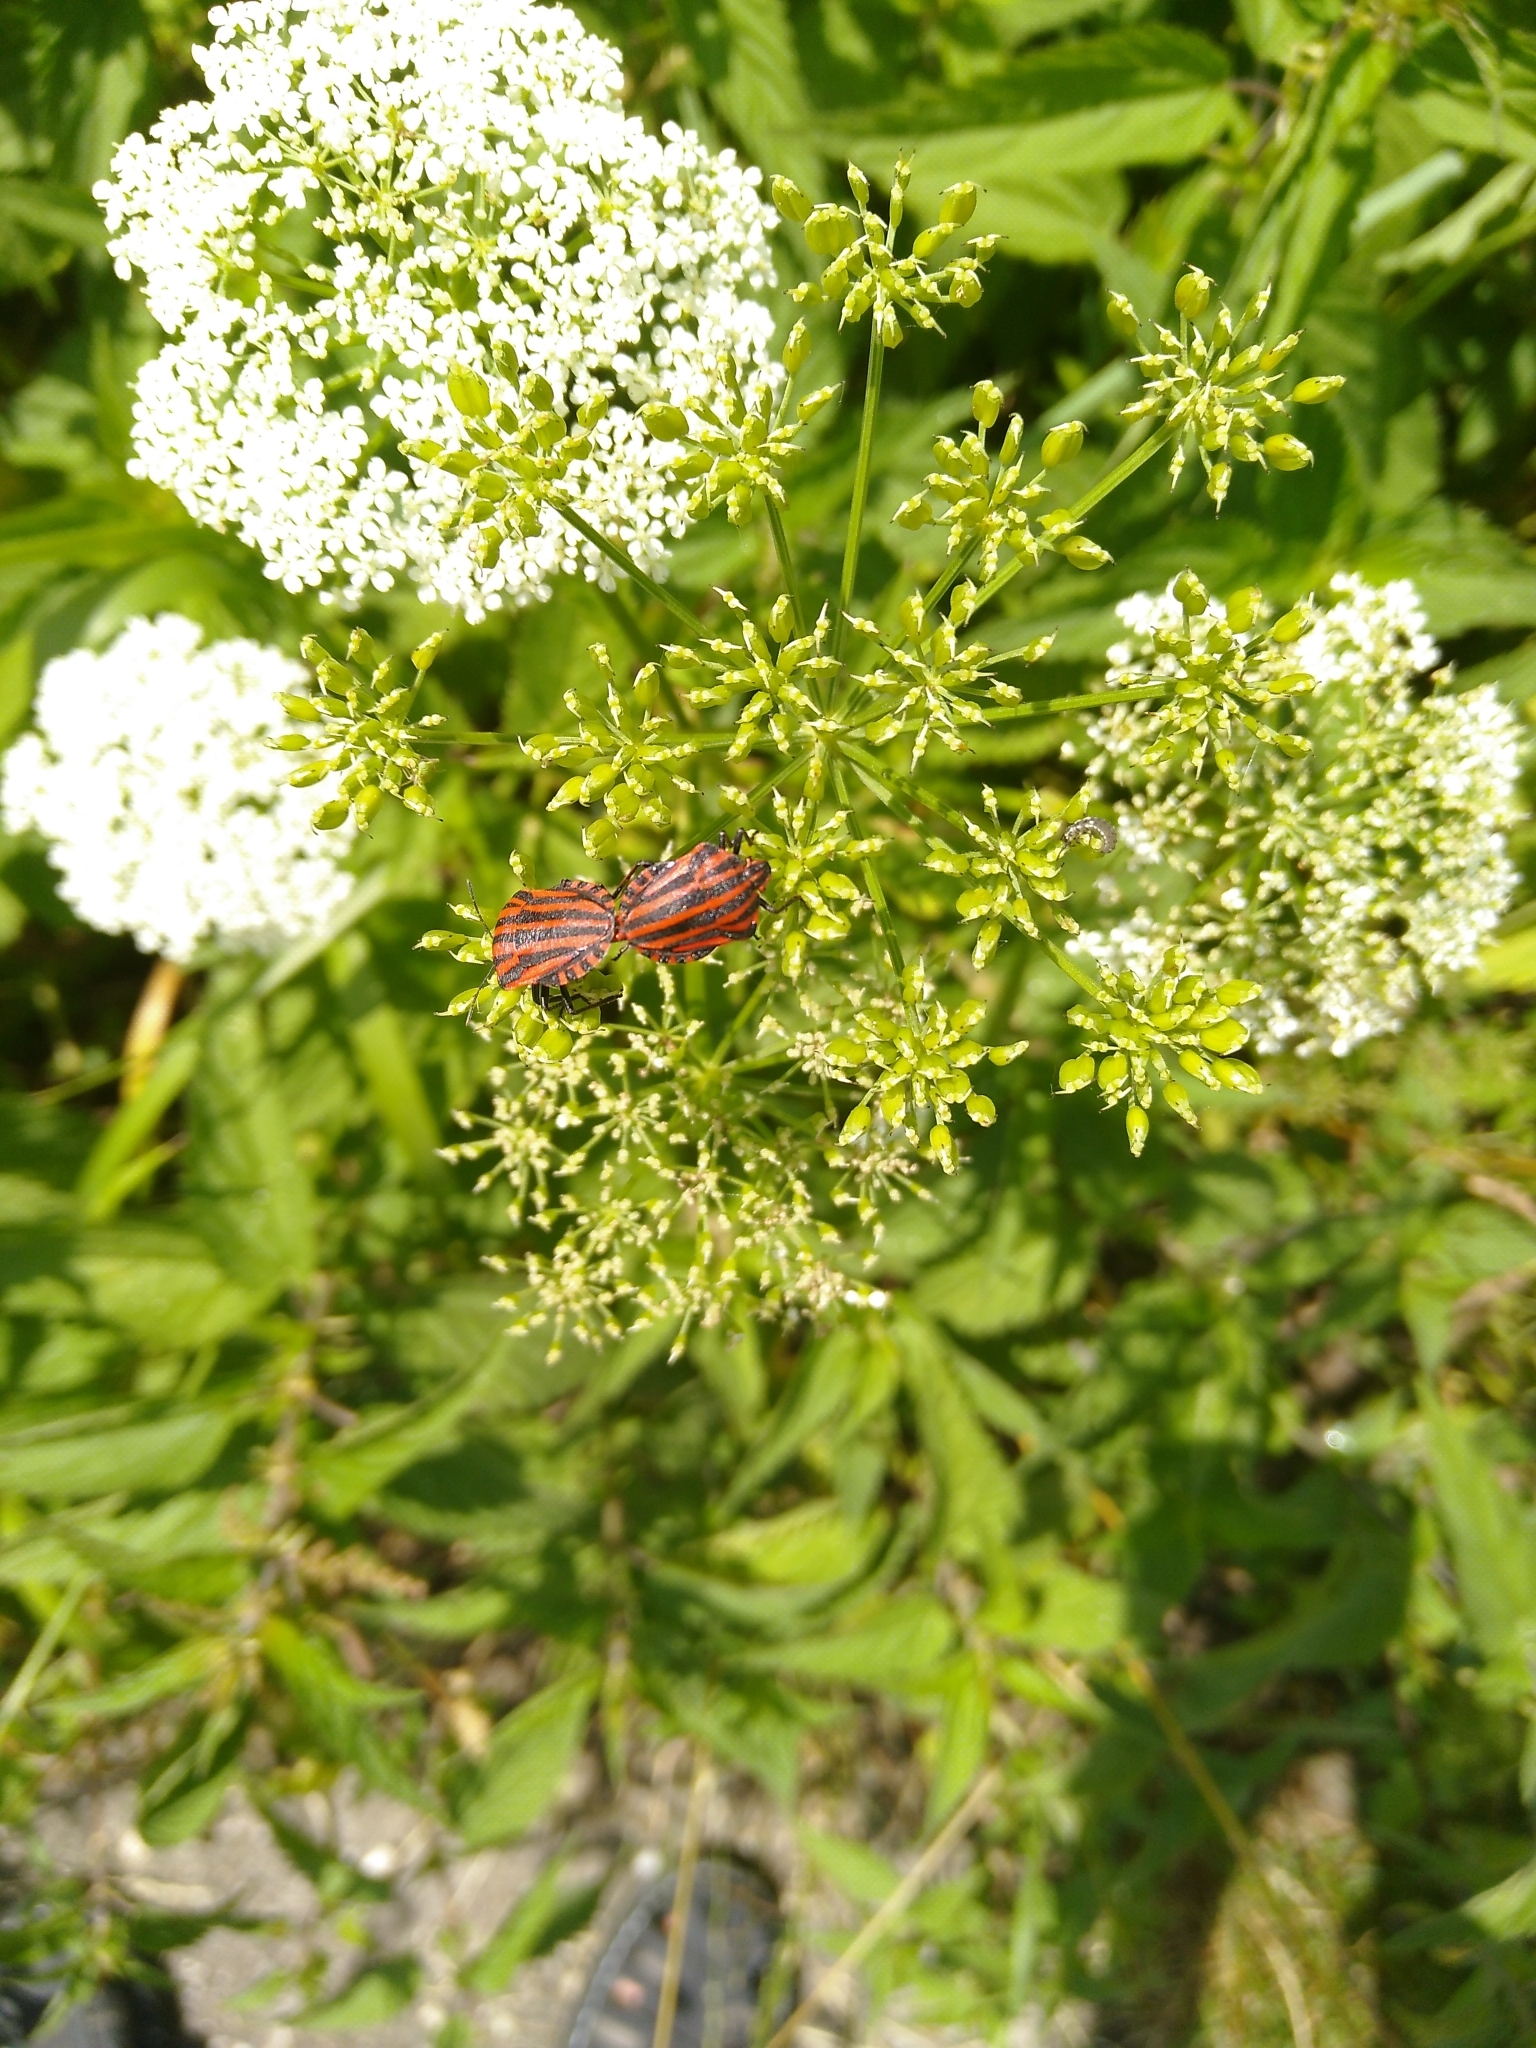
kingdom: Animalia
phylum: Arthropoda
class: Insecta
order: Hemiptera
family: Pentatomidae
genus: Graphosoma
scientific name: Graphosoma italicum
